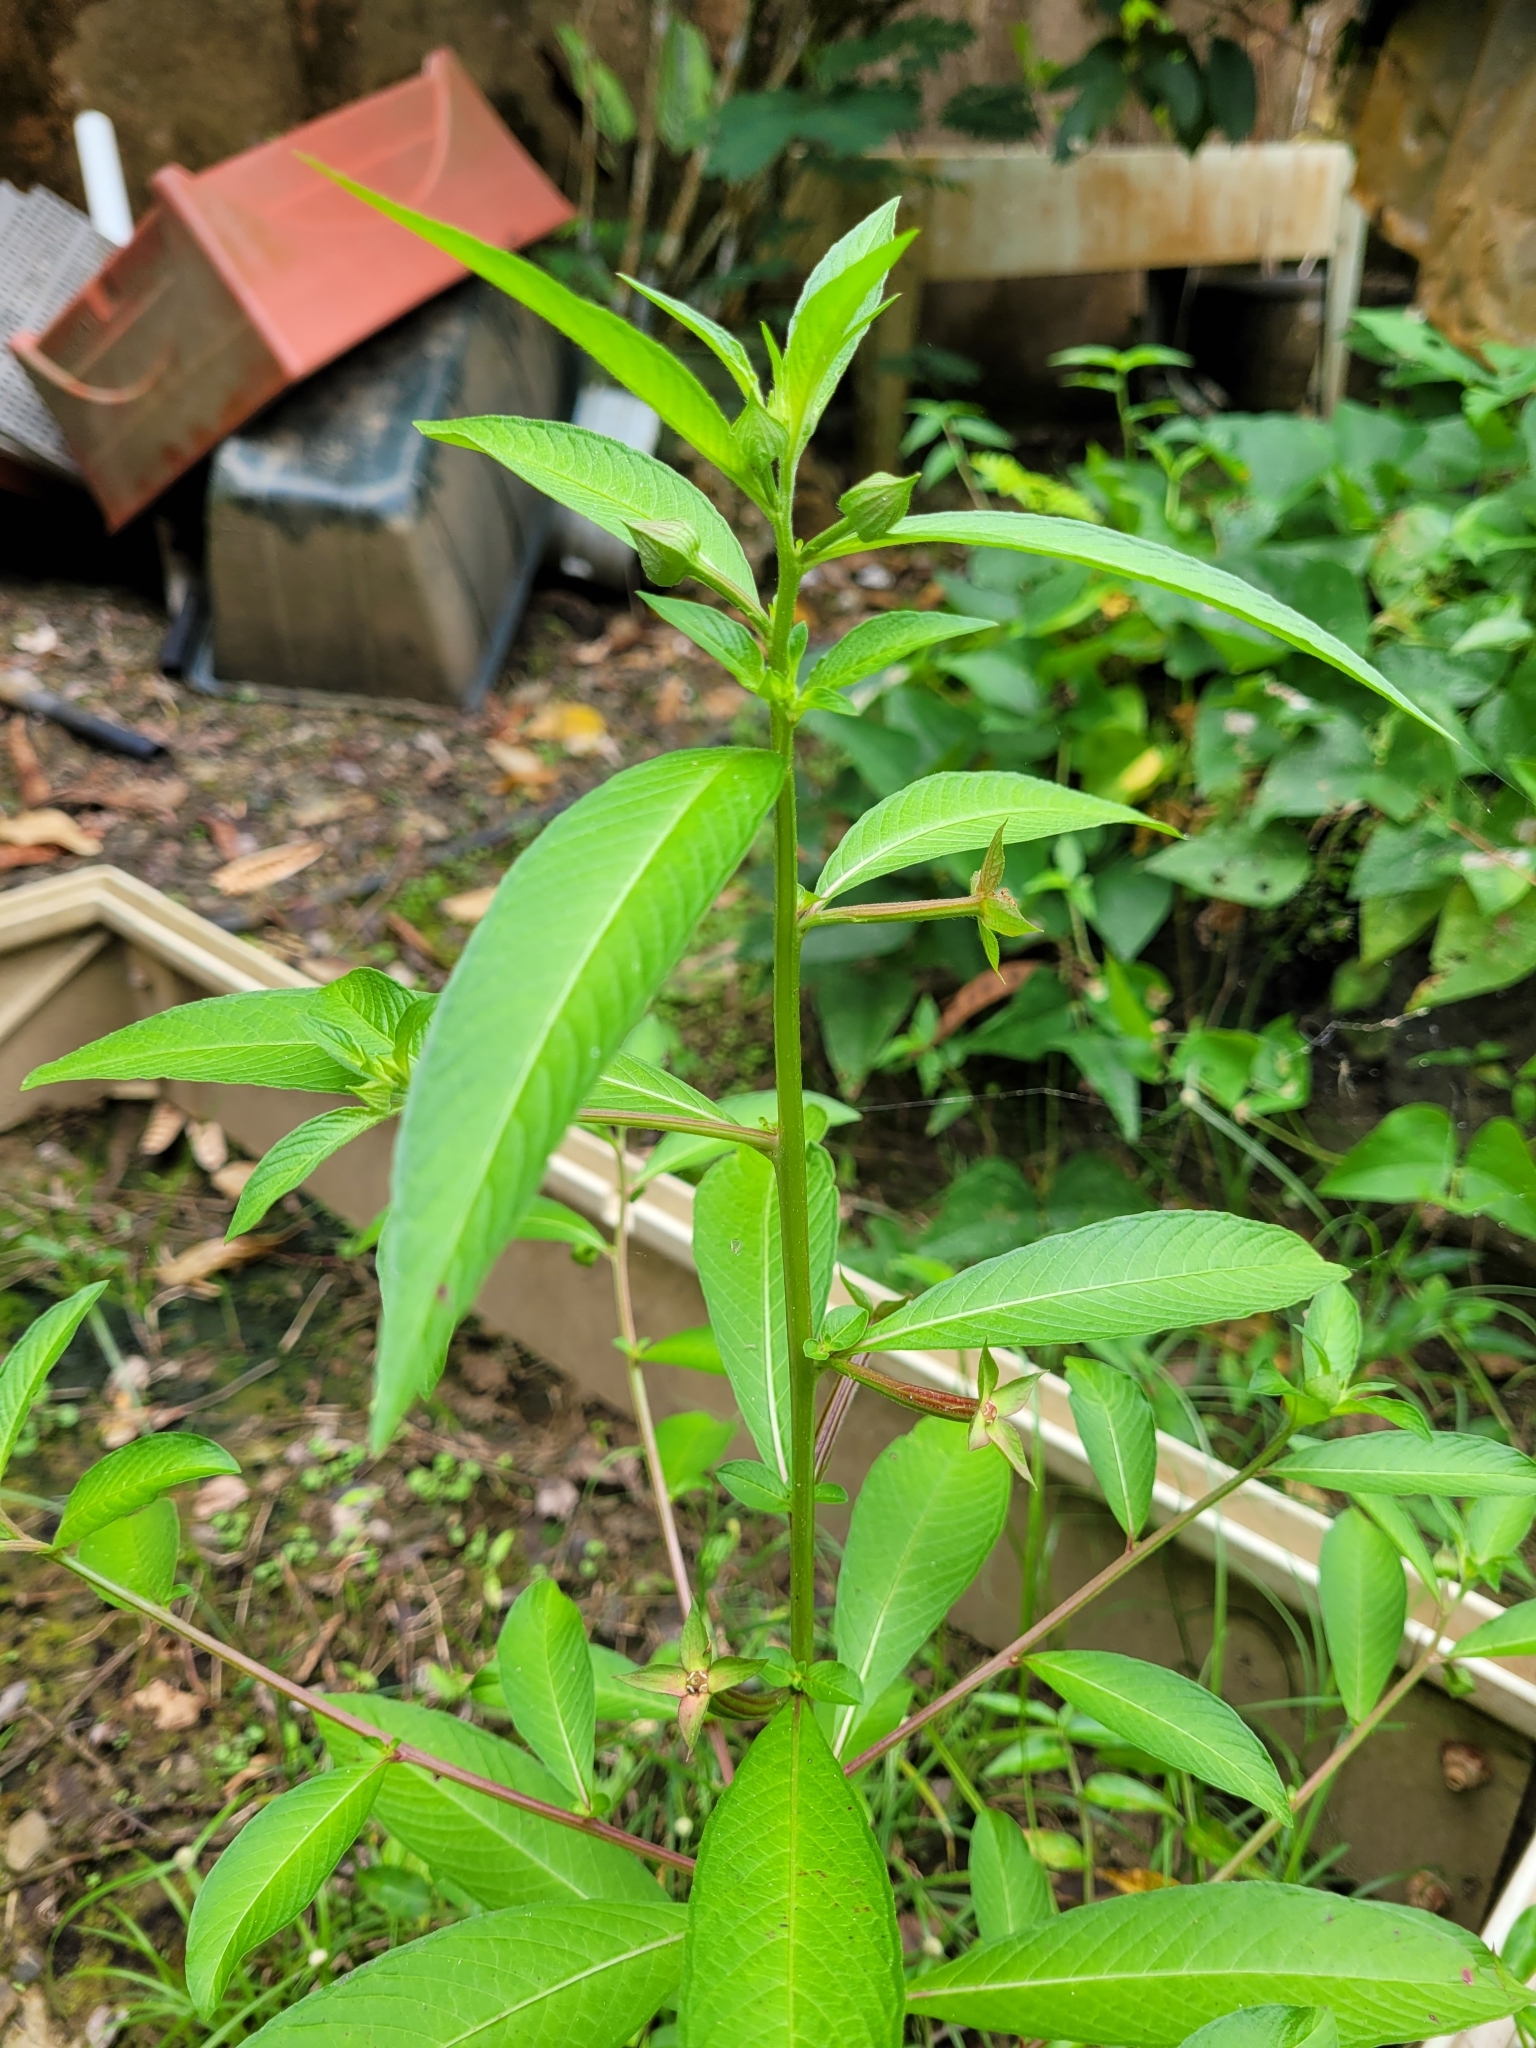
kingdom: Plantae
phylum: Tracheophyta
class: Magnoliopsida
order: Myrtales
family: Onagraceae
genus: Ludwigia
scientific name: Ludwigia octovalvis
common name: Water-primrose
